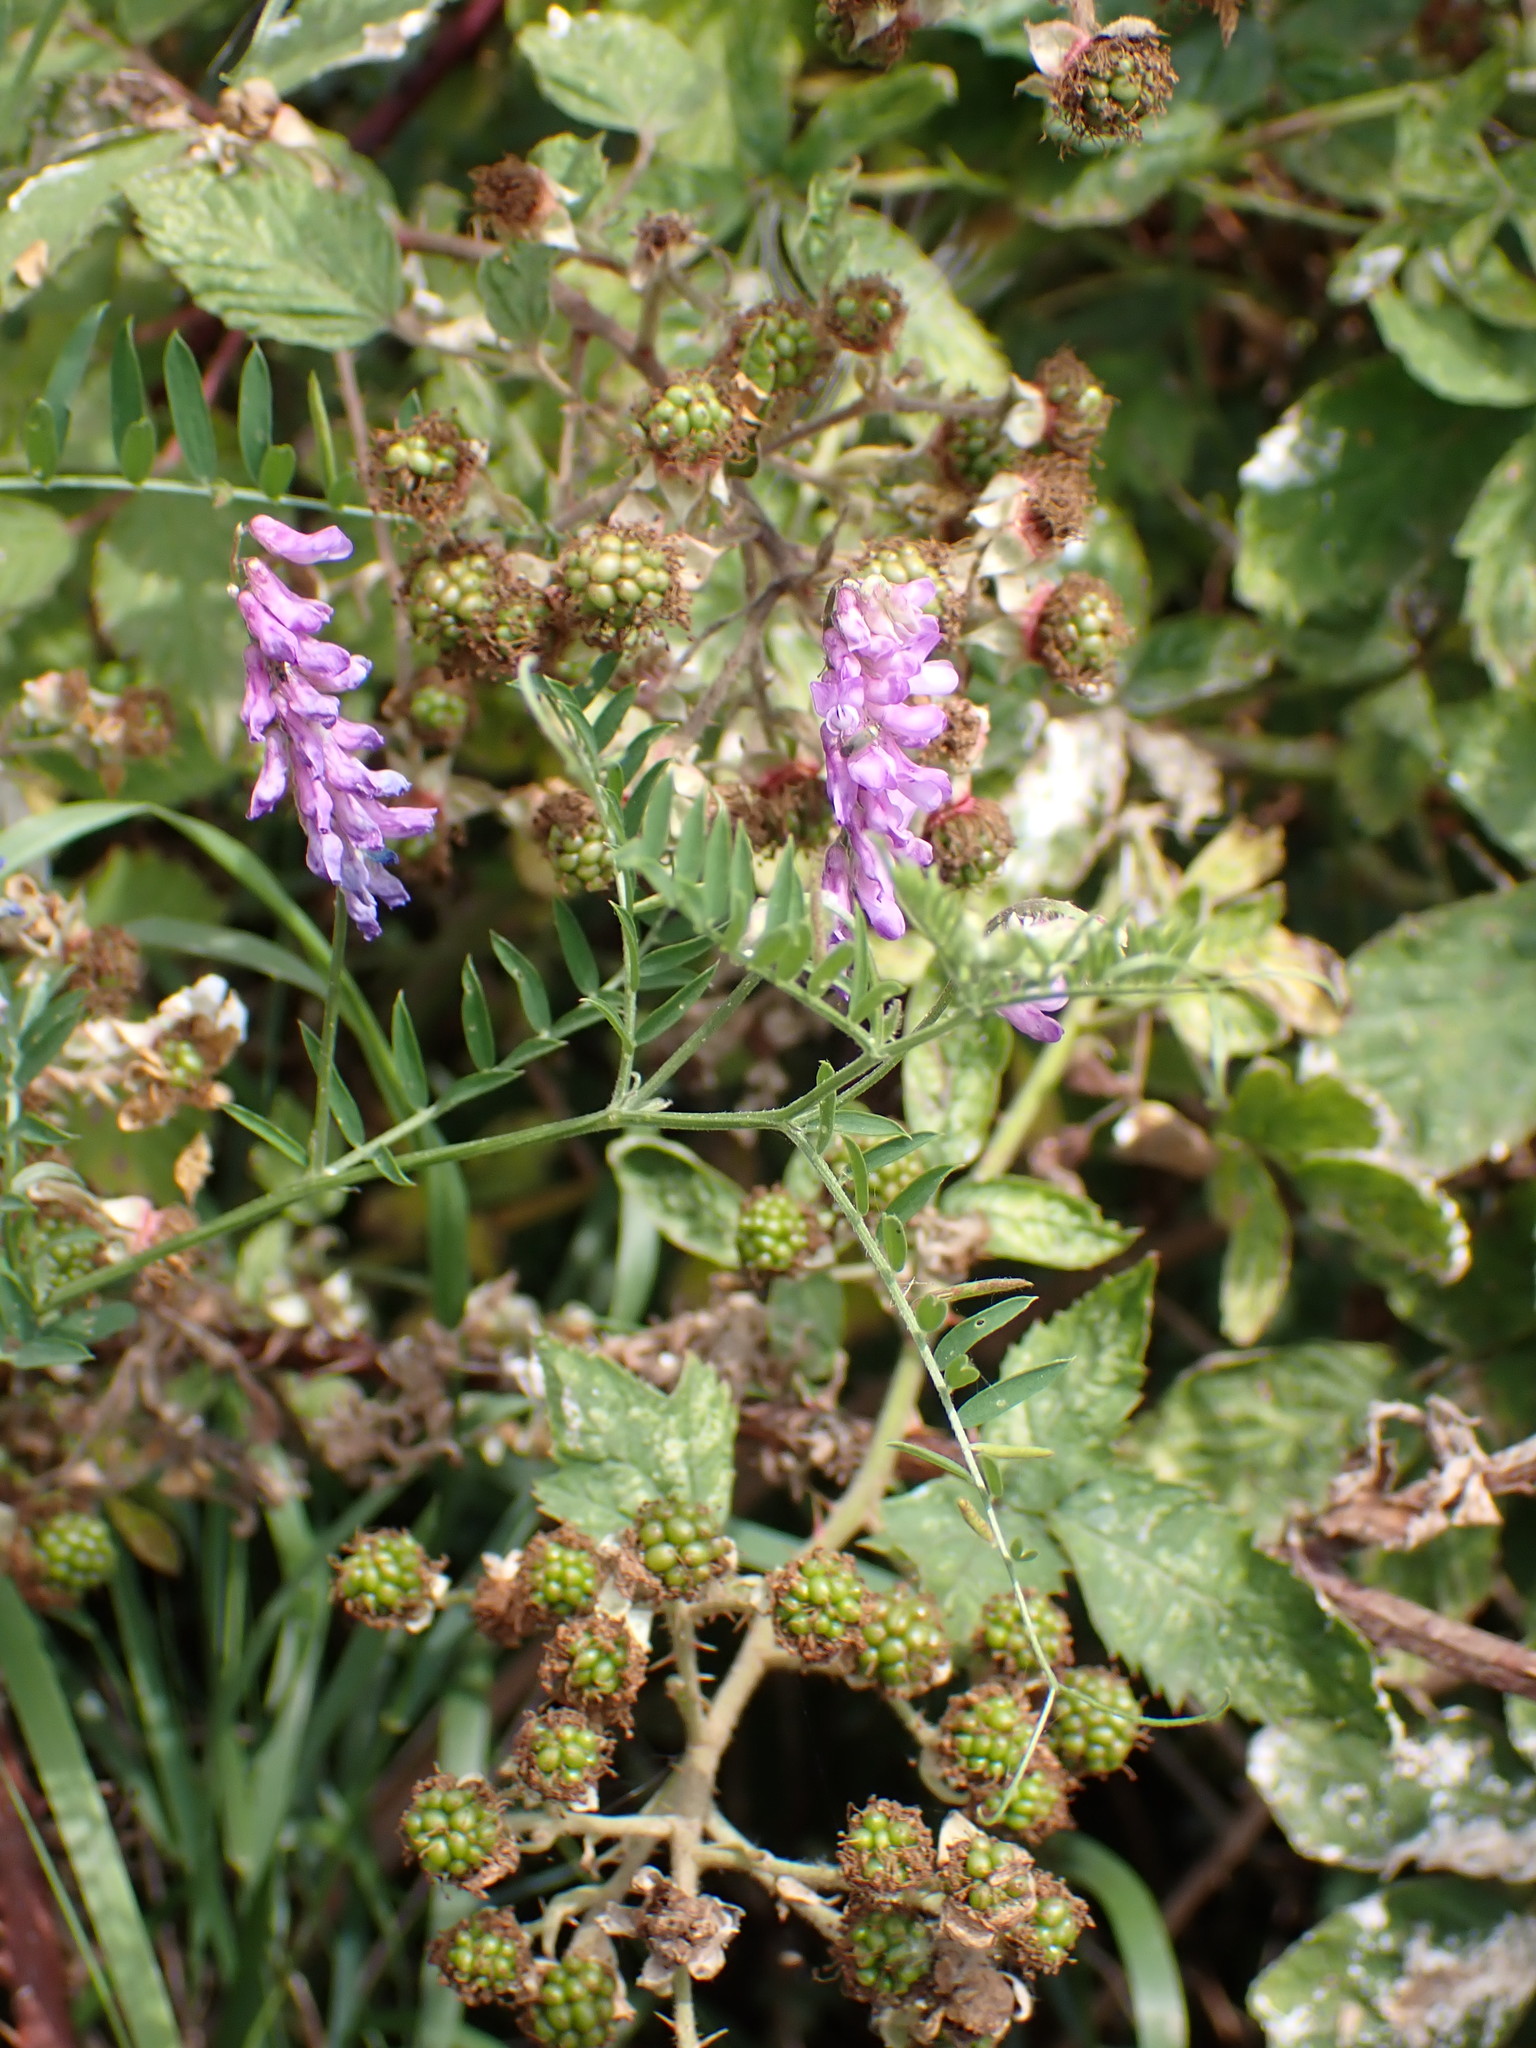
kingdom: Plantae
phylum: Tracheophyta
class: Magnoliopsida
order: Fabales
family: Fabaceae
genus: Vicia
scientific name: Vicia cracca
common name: Bird vetch
